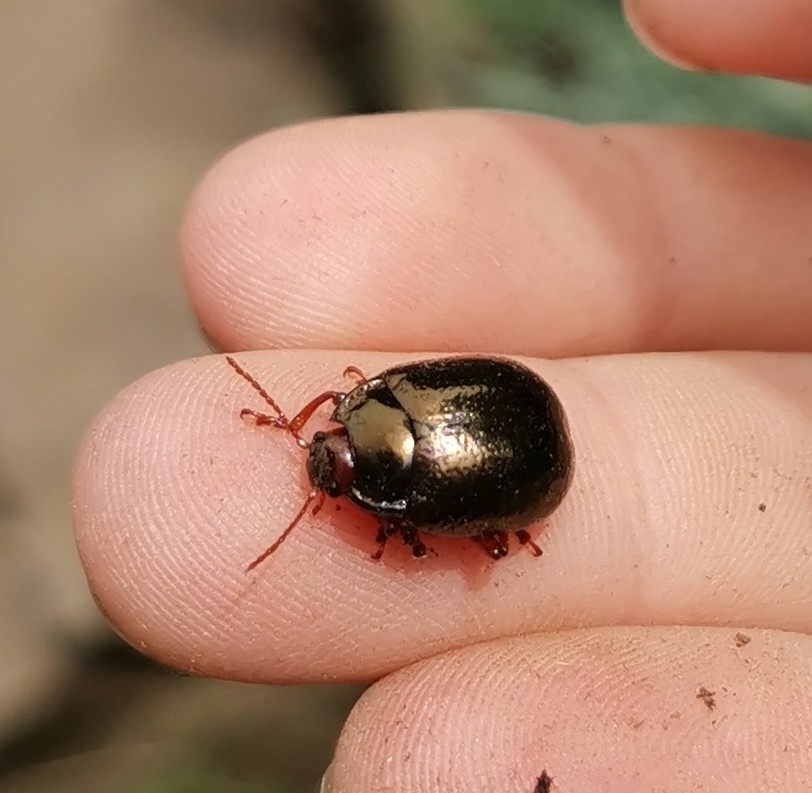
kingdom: Animalia
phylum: Arthropoda
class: Insecta
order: Coleoptera
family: Chrysomelidae
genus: Chrysolina
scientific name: Chrysolina bankii
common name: Leaf beetle
